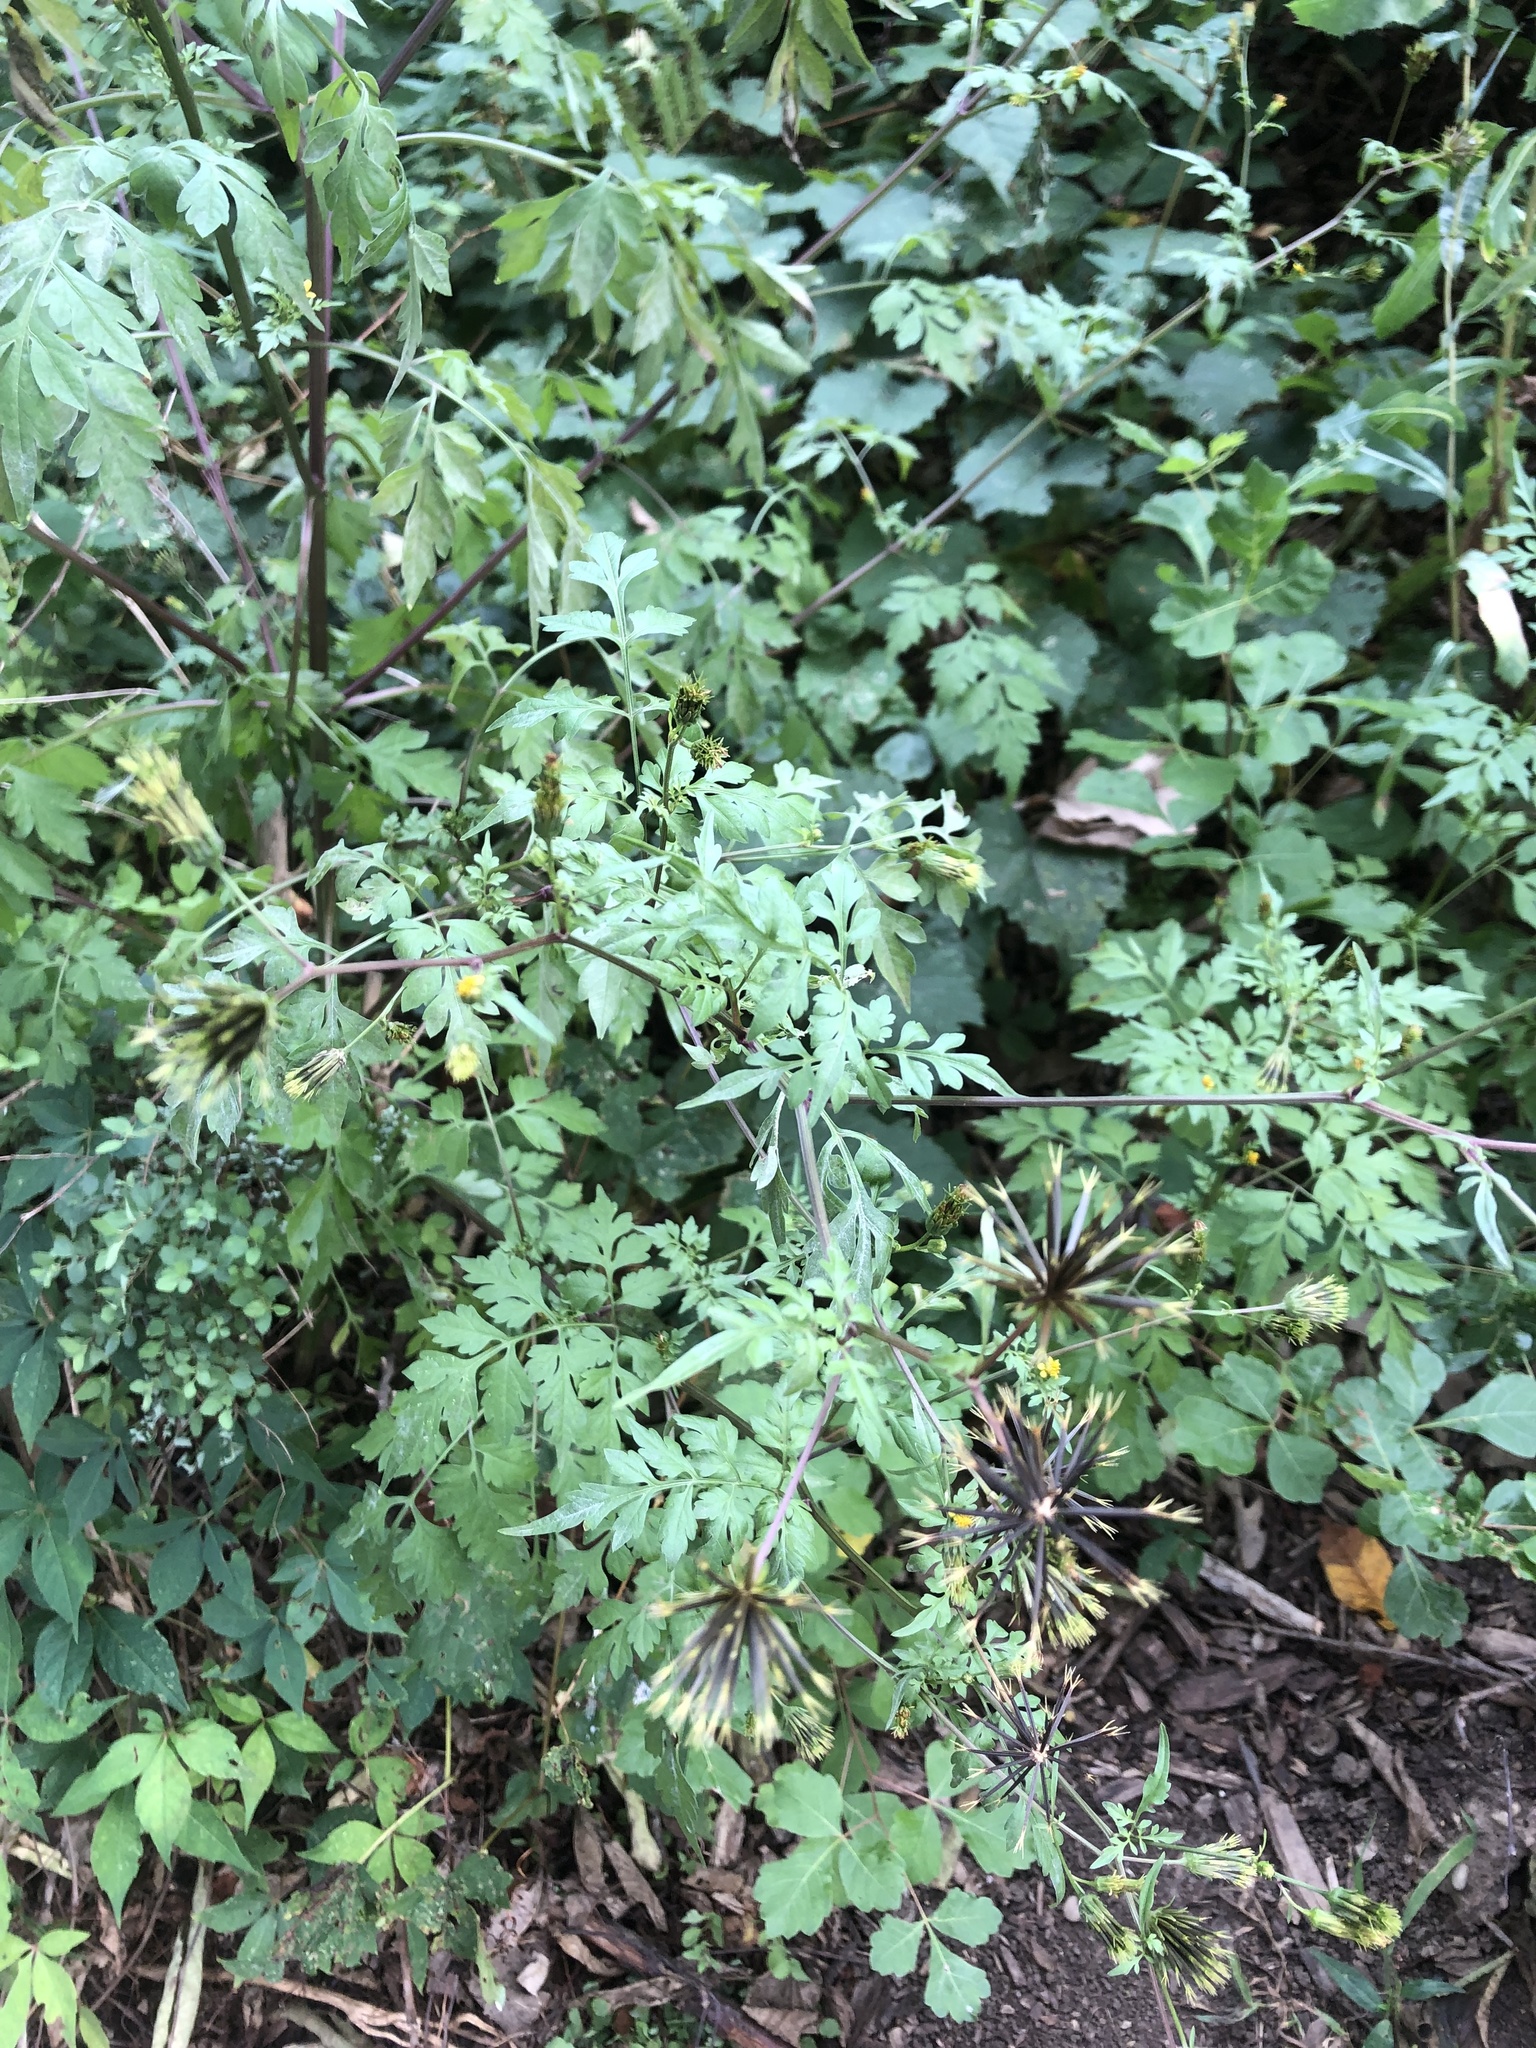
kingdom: Plantae
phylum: Tracheophyta
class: Magnoliopsida
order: Asterales
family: Asteraceae
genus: Bidens
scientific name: Bidens bipinnata
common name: Spanish-needles
